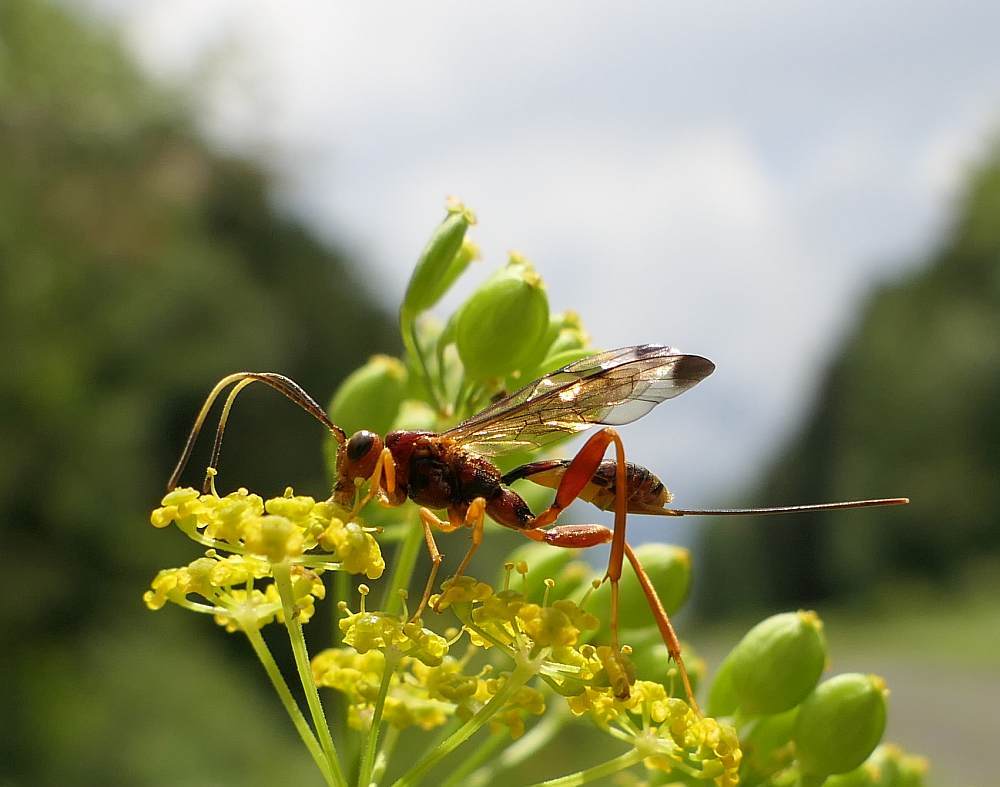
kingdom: Animalia
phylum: Arthropoda
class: Insecta
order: Hymenoptera
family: Ichneumonidae
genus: Spilopteron
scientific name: Spilopteron vicinum
